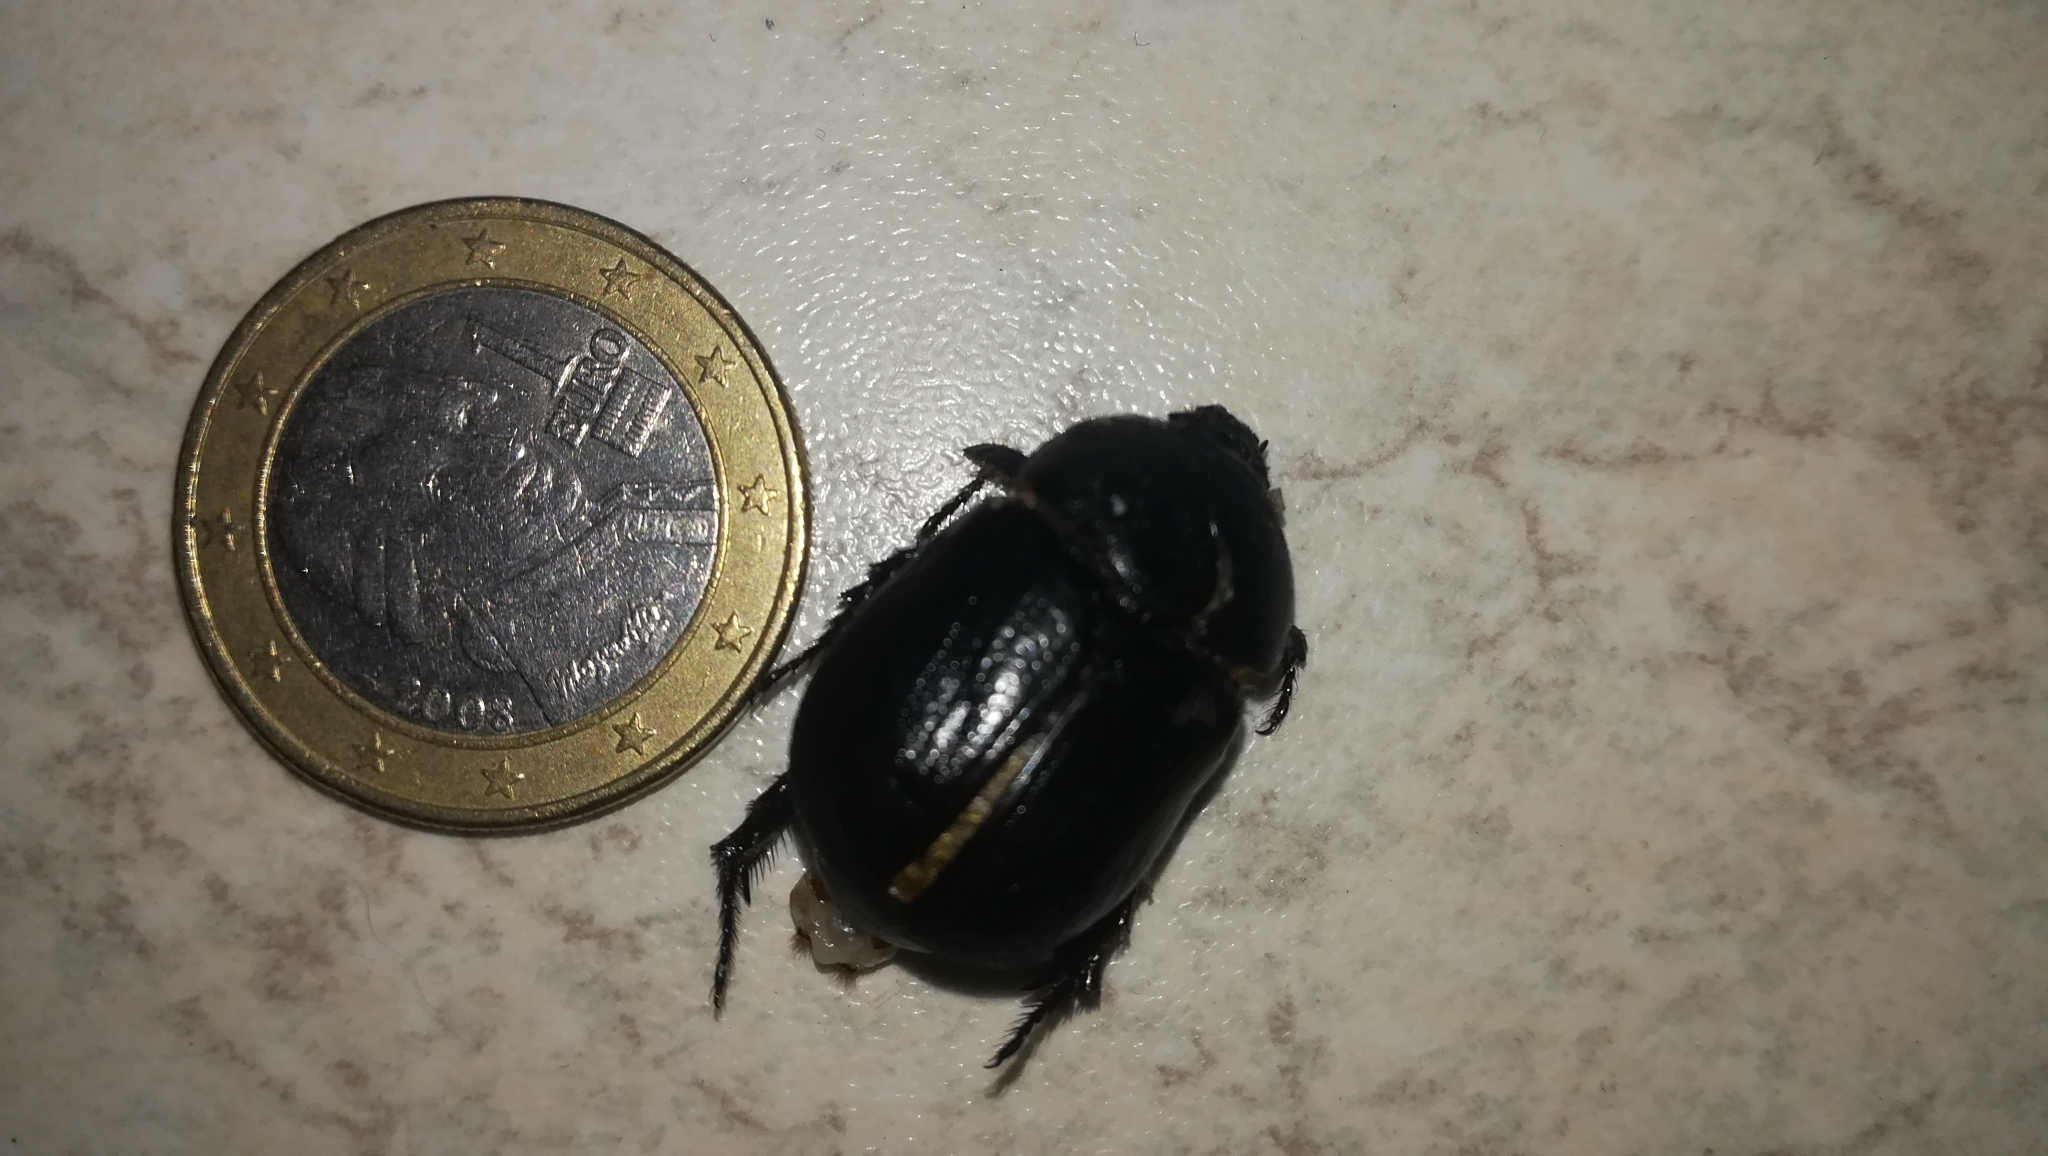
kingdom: Animalia
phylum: Arthropoda
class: Insecta
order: Coleoptera
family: Scarabaeidae
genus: Pentodon
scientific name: Pentodon bidens
